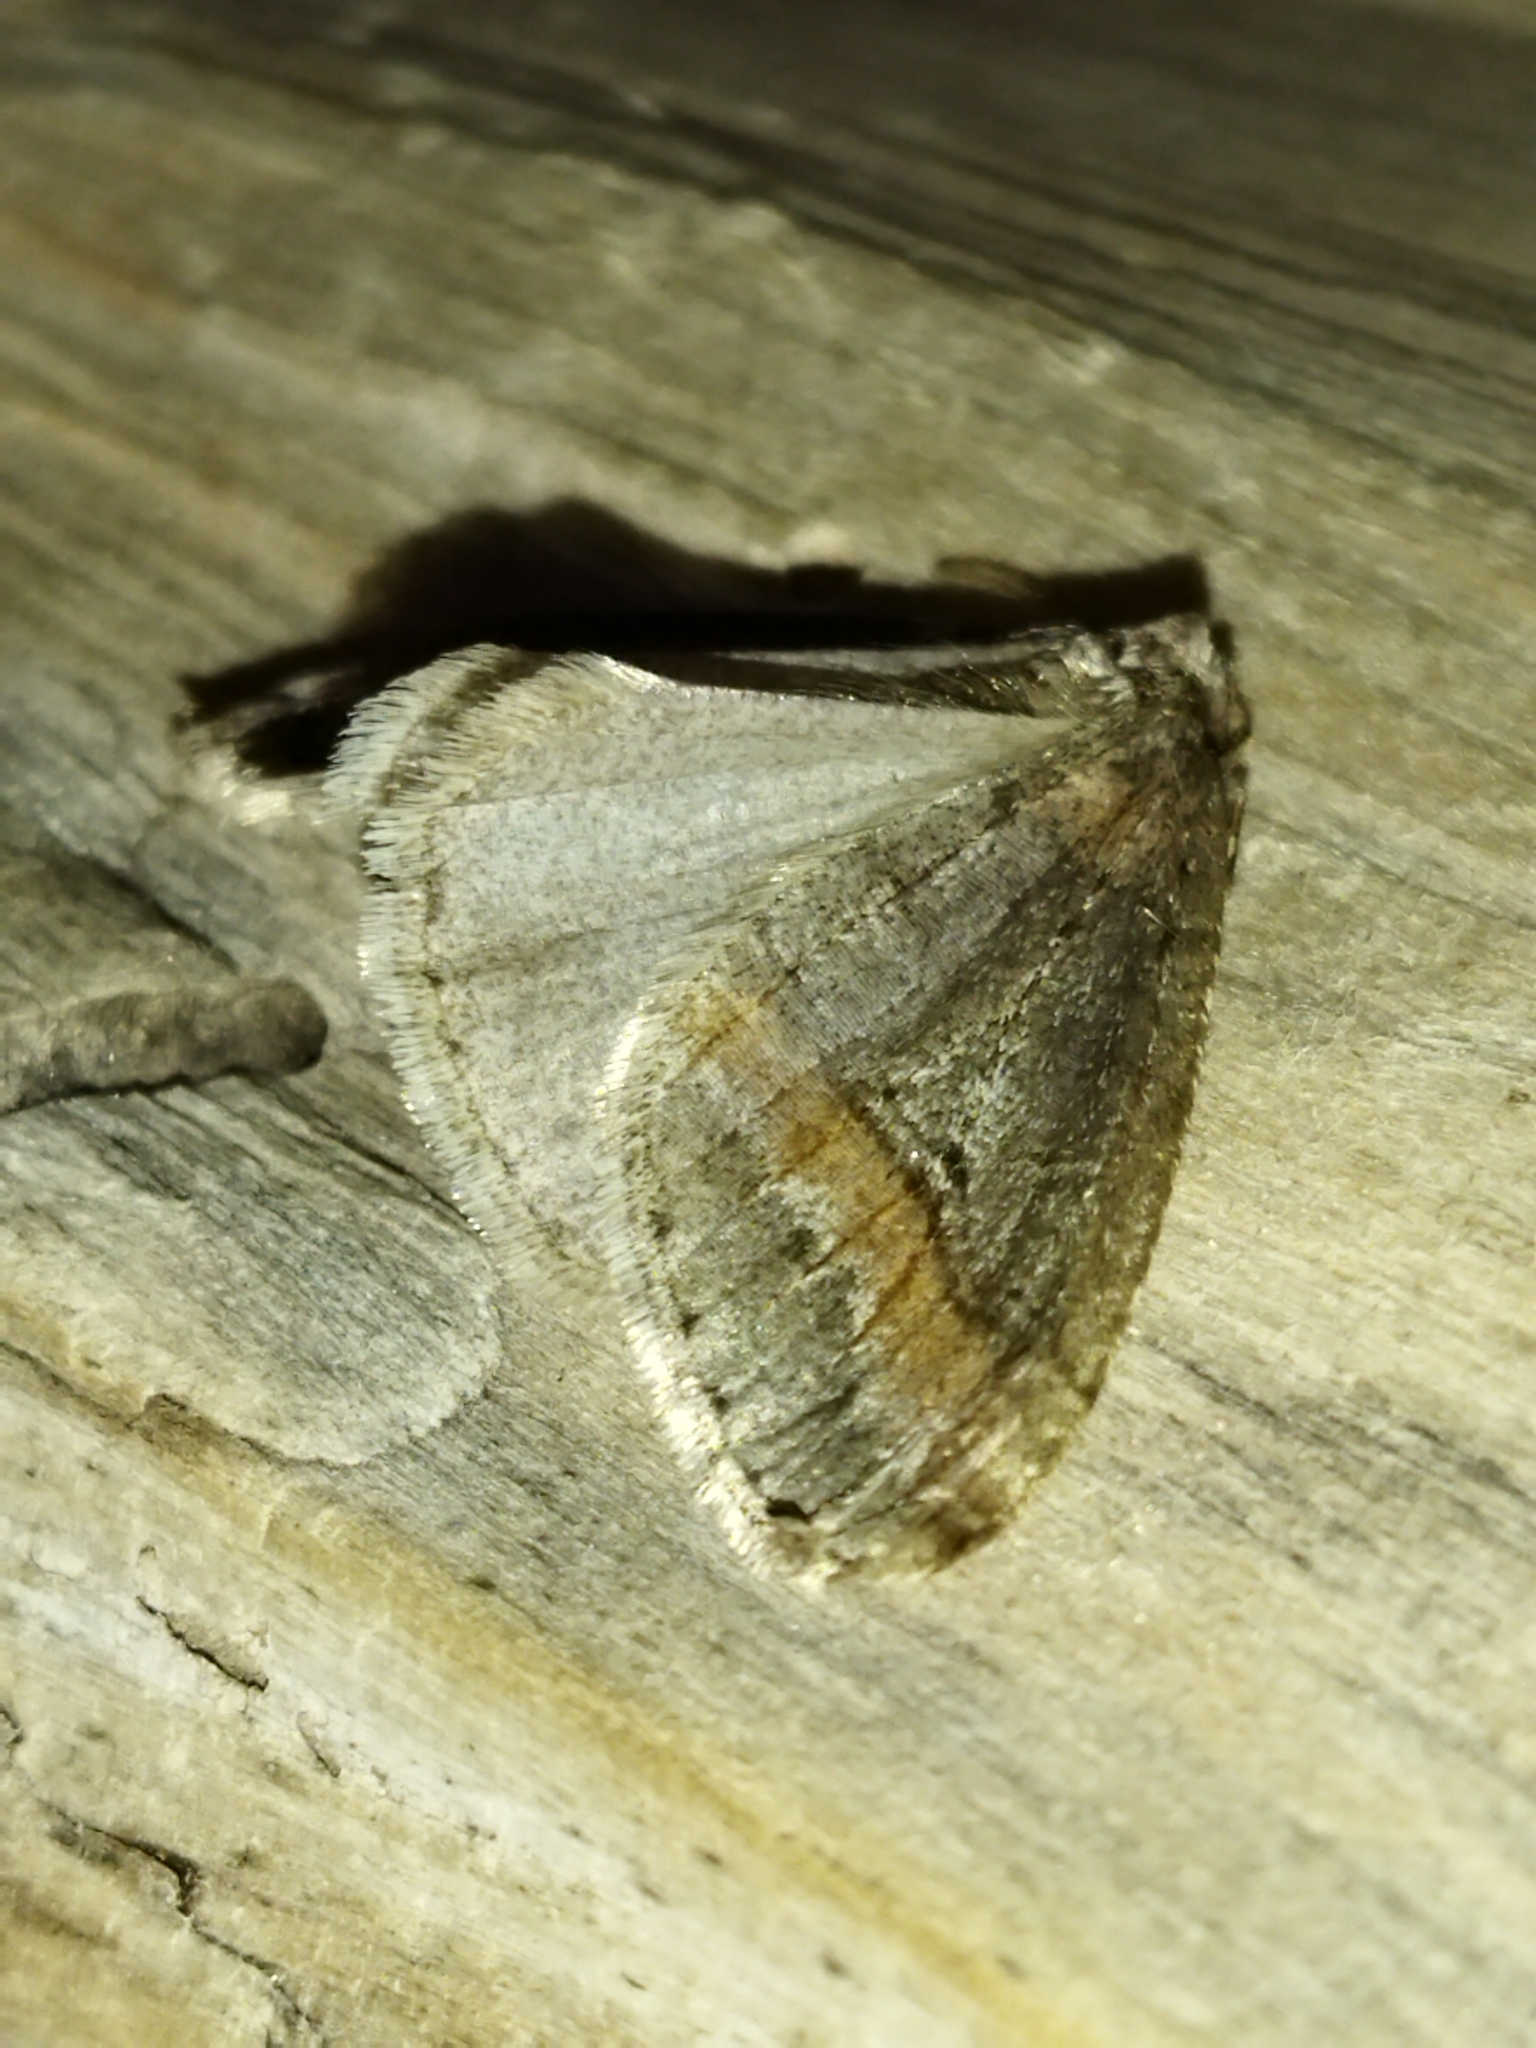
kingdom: Animalia
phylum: Arthropoda
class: Insecta
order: Lepidoptera
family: Geometridae
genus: Erannis
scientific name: Erannis declinans
